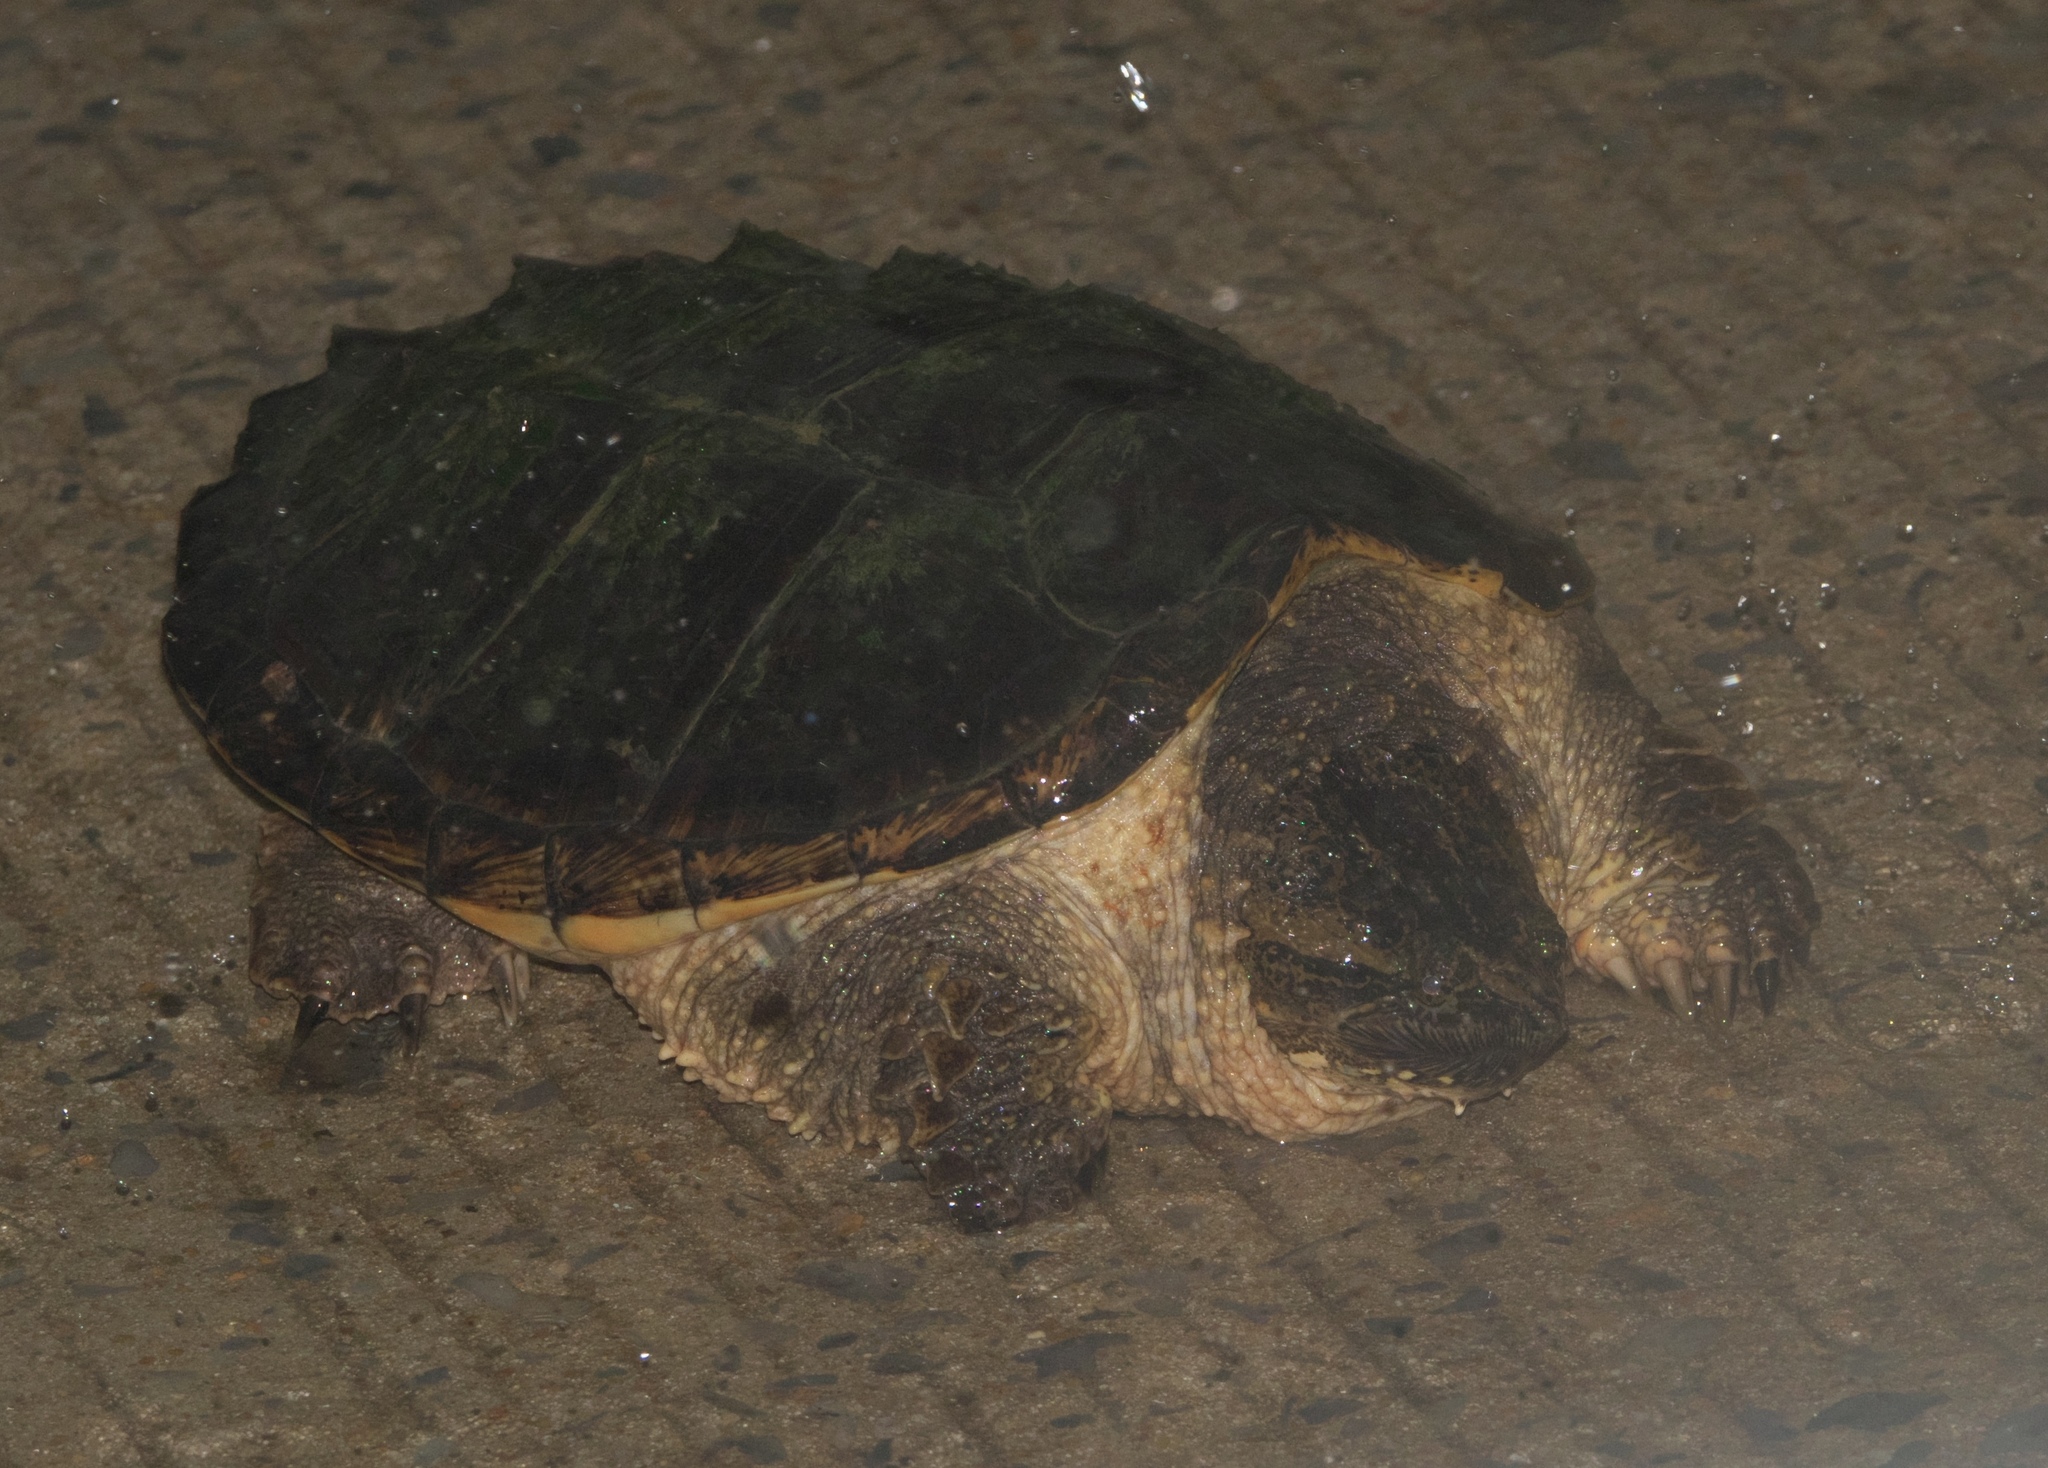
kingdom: Animalia
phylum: Chordata
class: Testudines
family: Chelydridae
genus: Chelydra
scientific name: Chelydra serpentina
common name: Common snapping turtle
